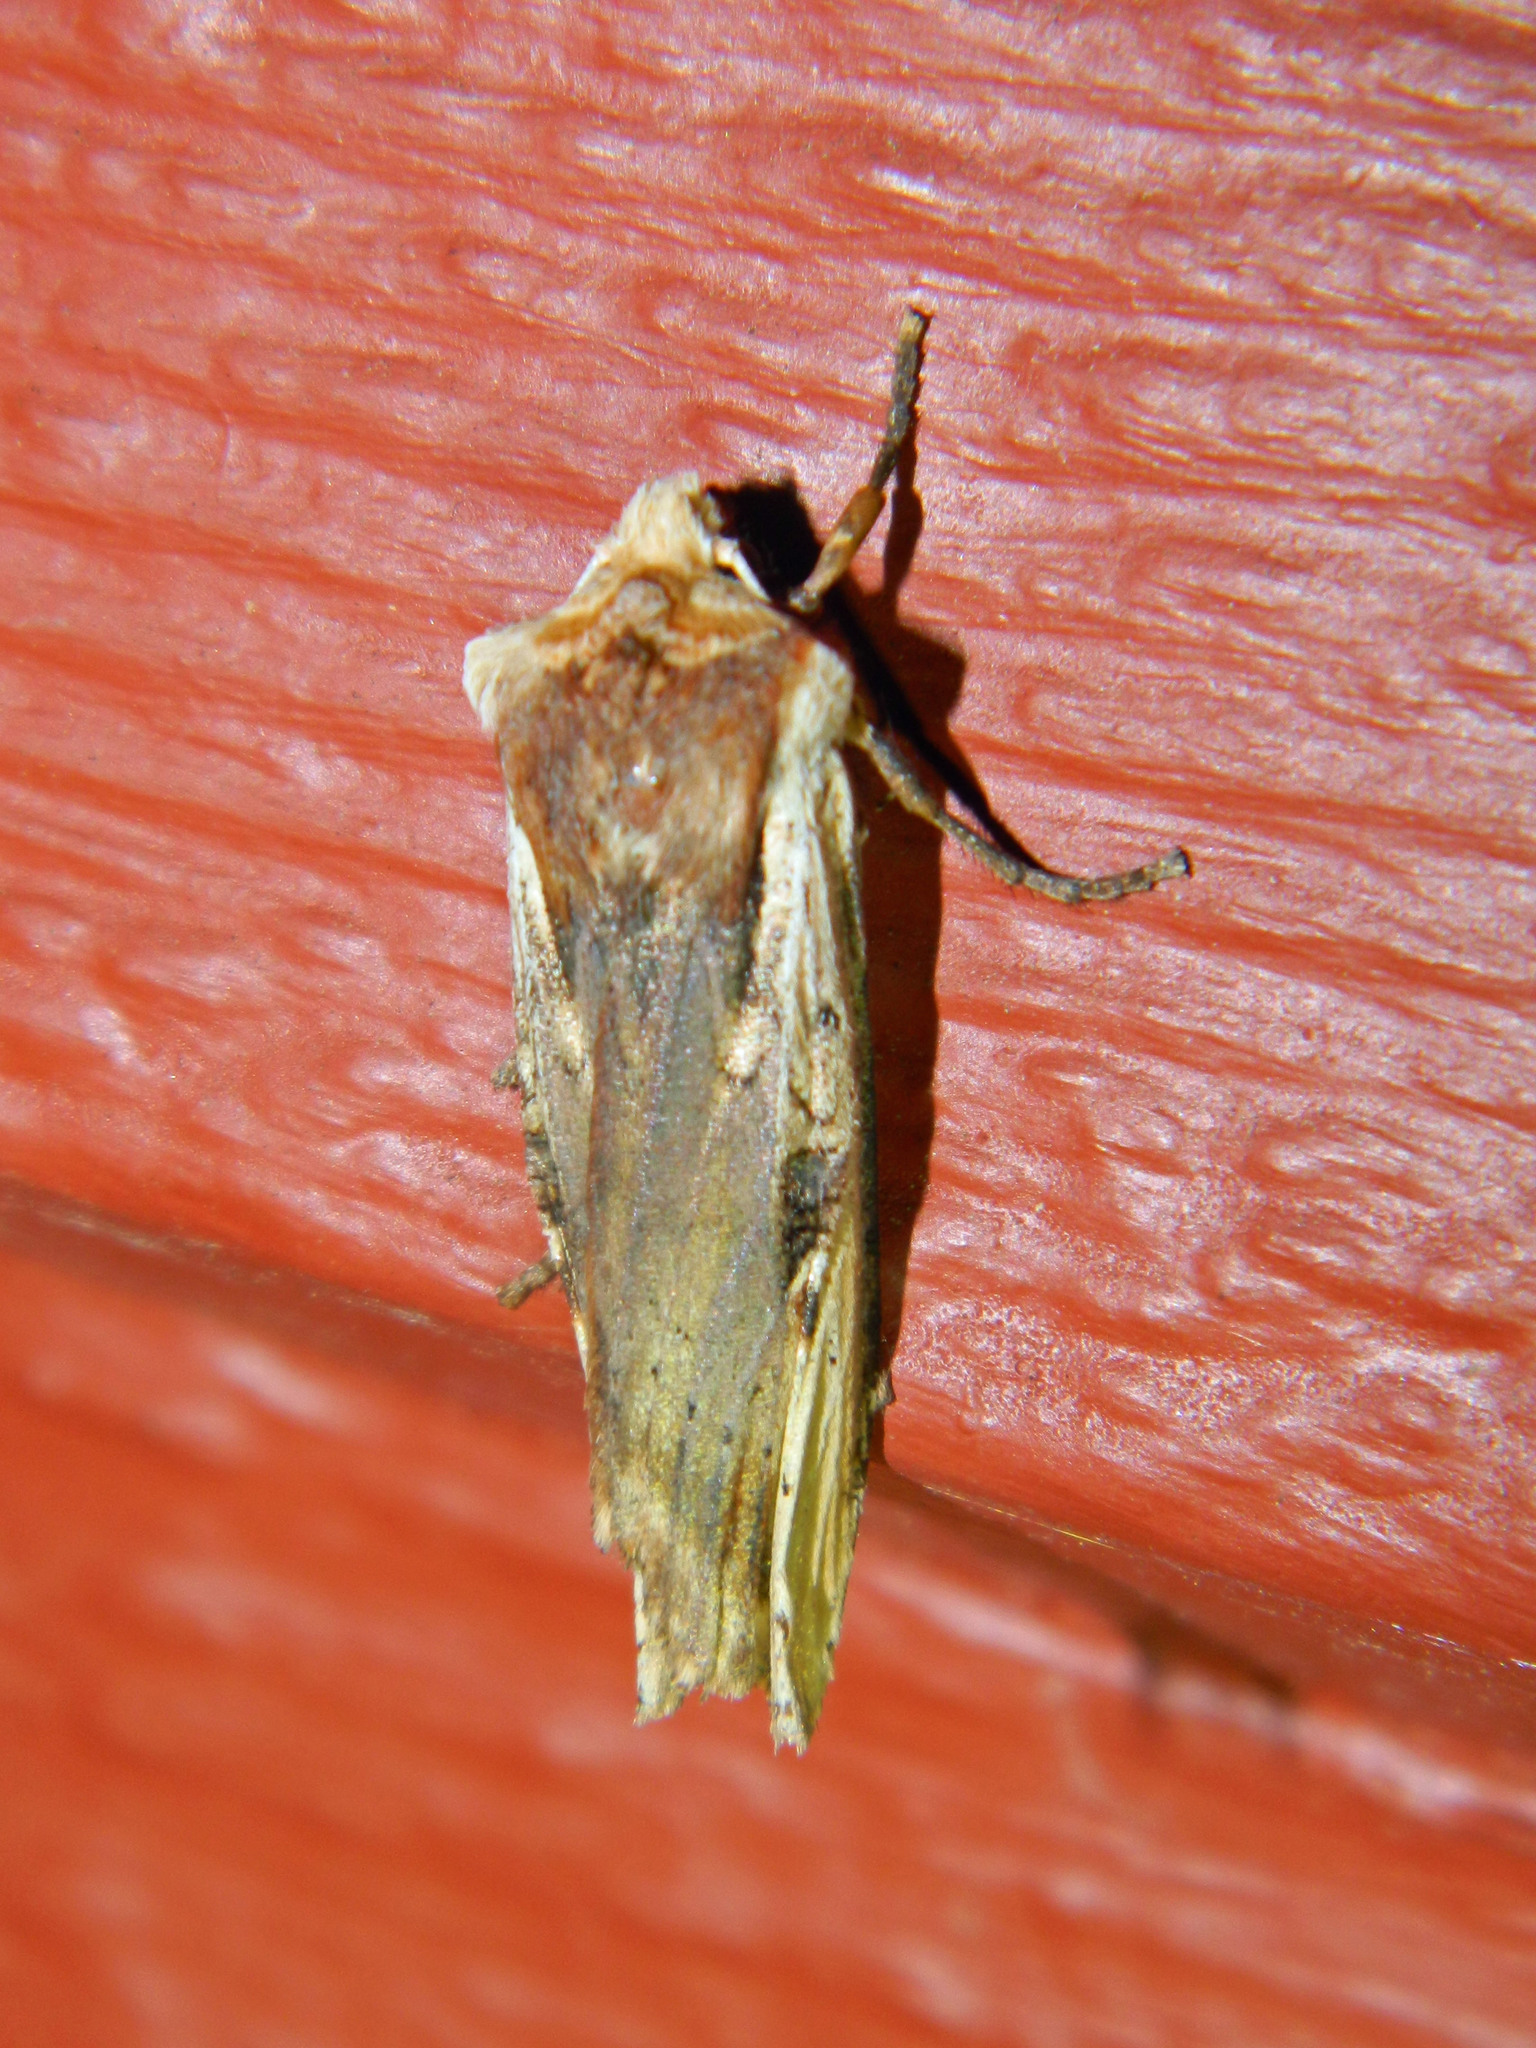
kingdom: Animalia
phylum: Arthropoda
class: Insecta
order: Lepidoptera
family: Noctuidae
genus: Xylena
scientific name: Xylena curvimacula
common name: Dot-and-dash swordgrass moth
